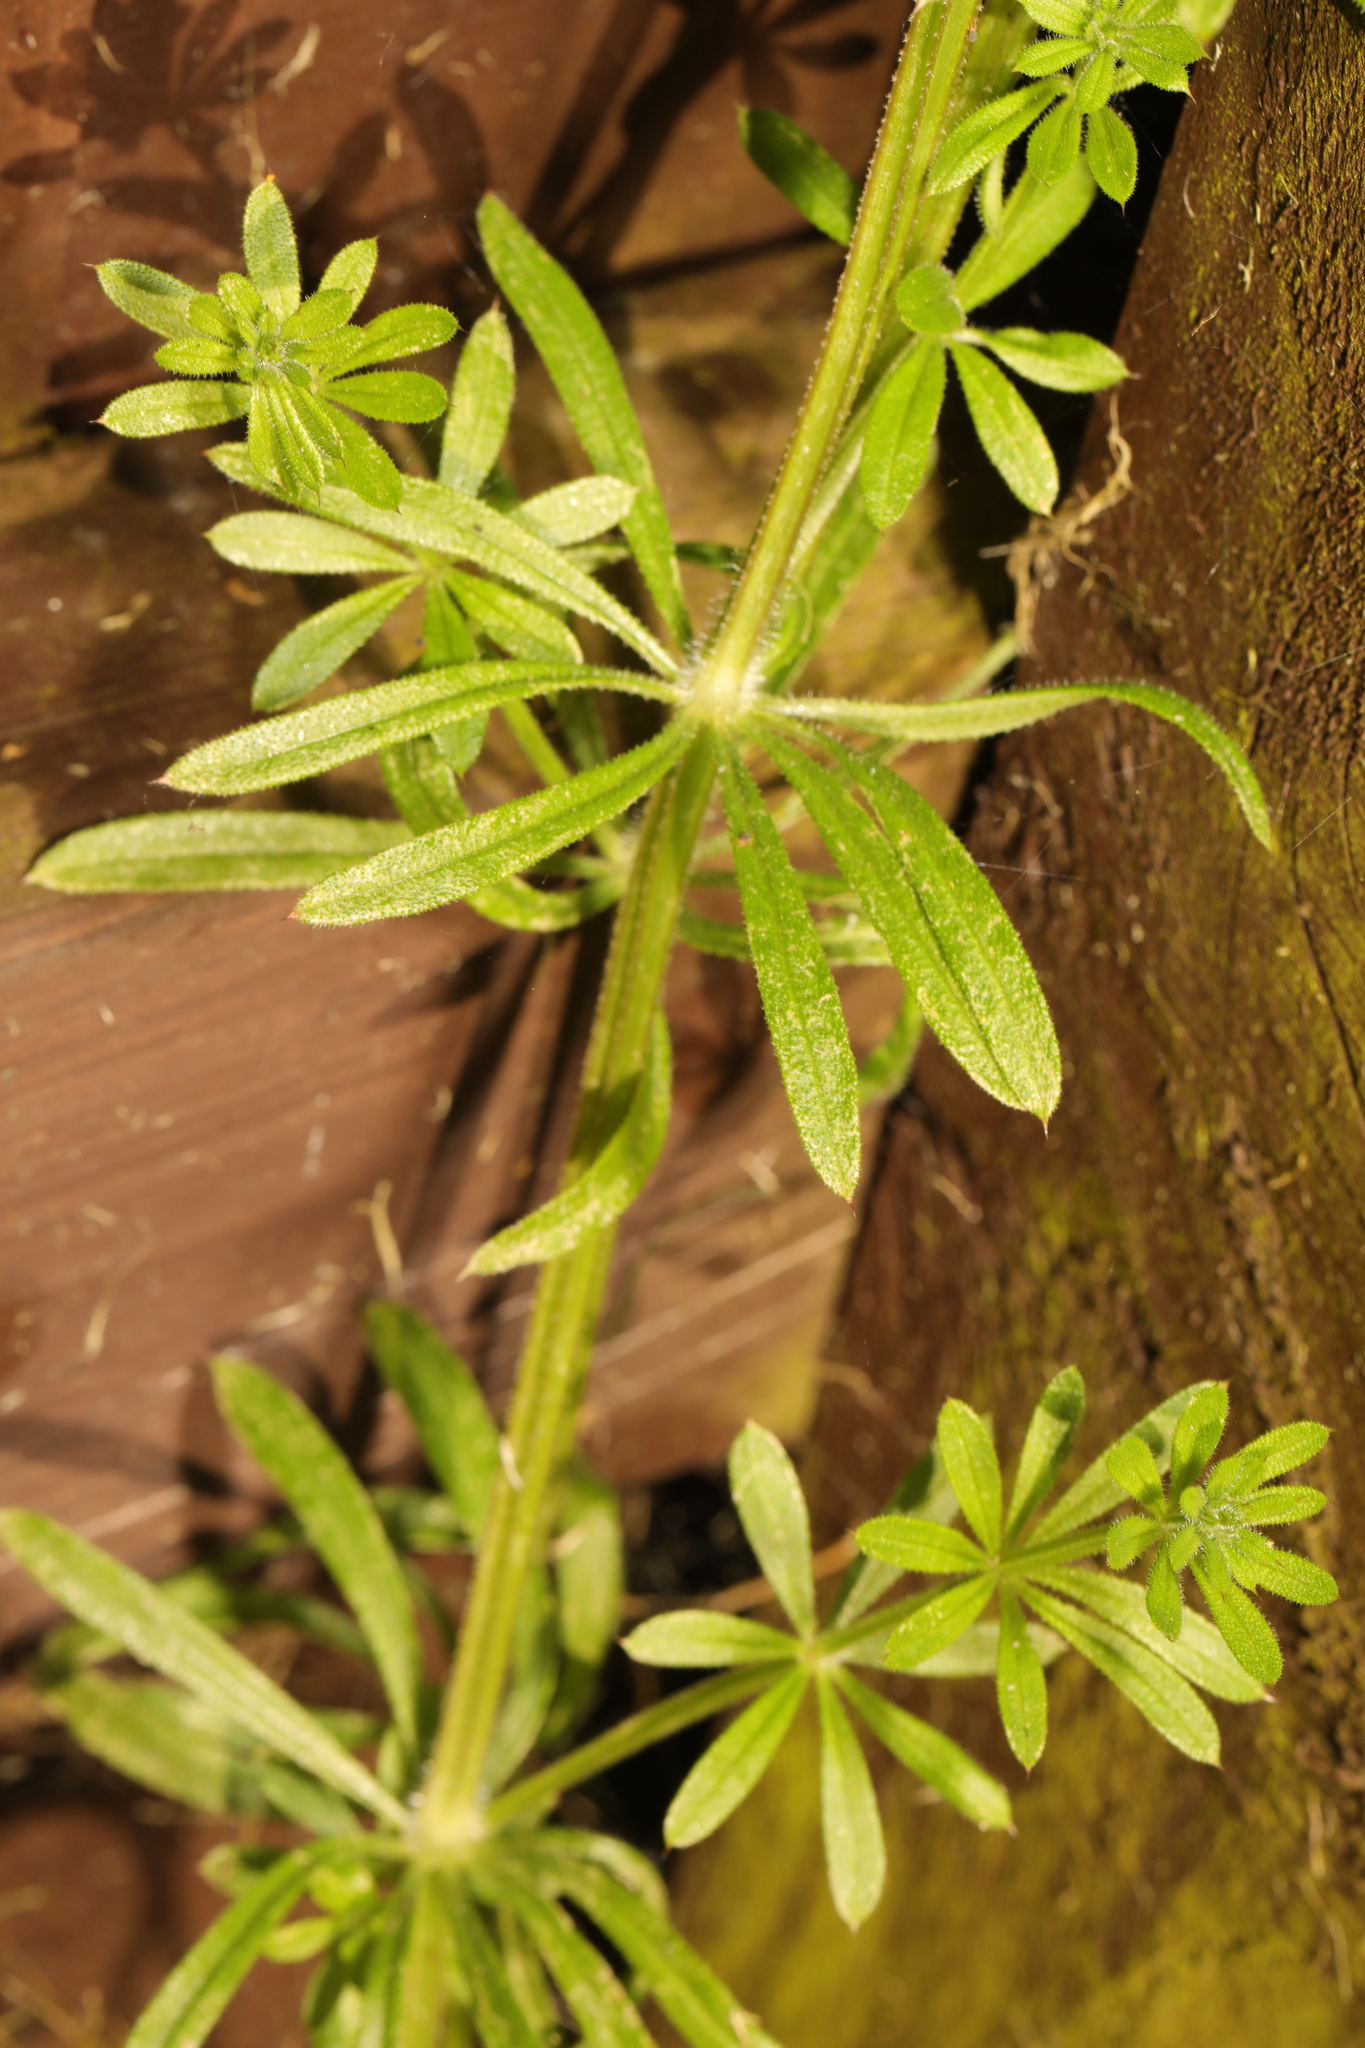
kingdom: Plantae
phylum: Tracheophyta
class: Magnoliopsida
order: Gentianales
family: Rubiaceae
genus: Galium
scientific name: Galium aparine
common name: Cleavers
